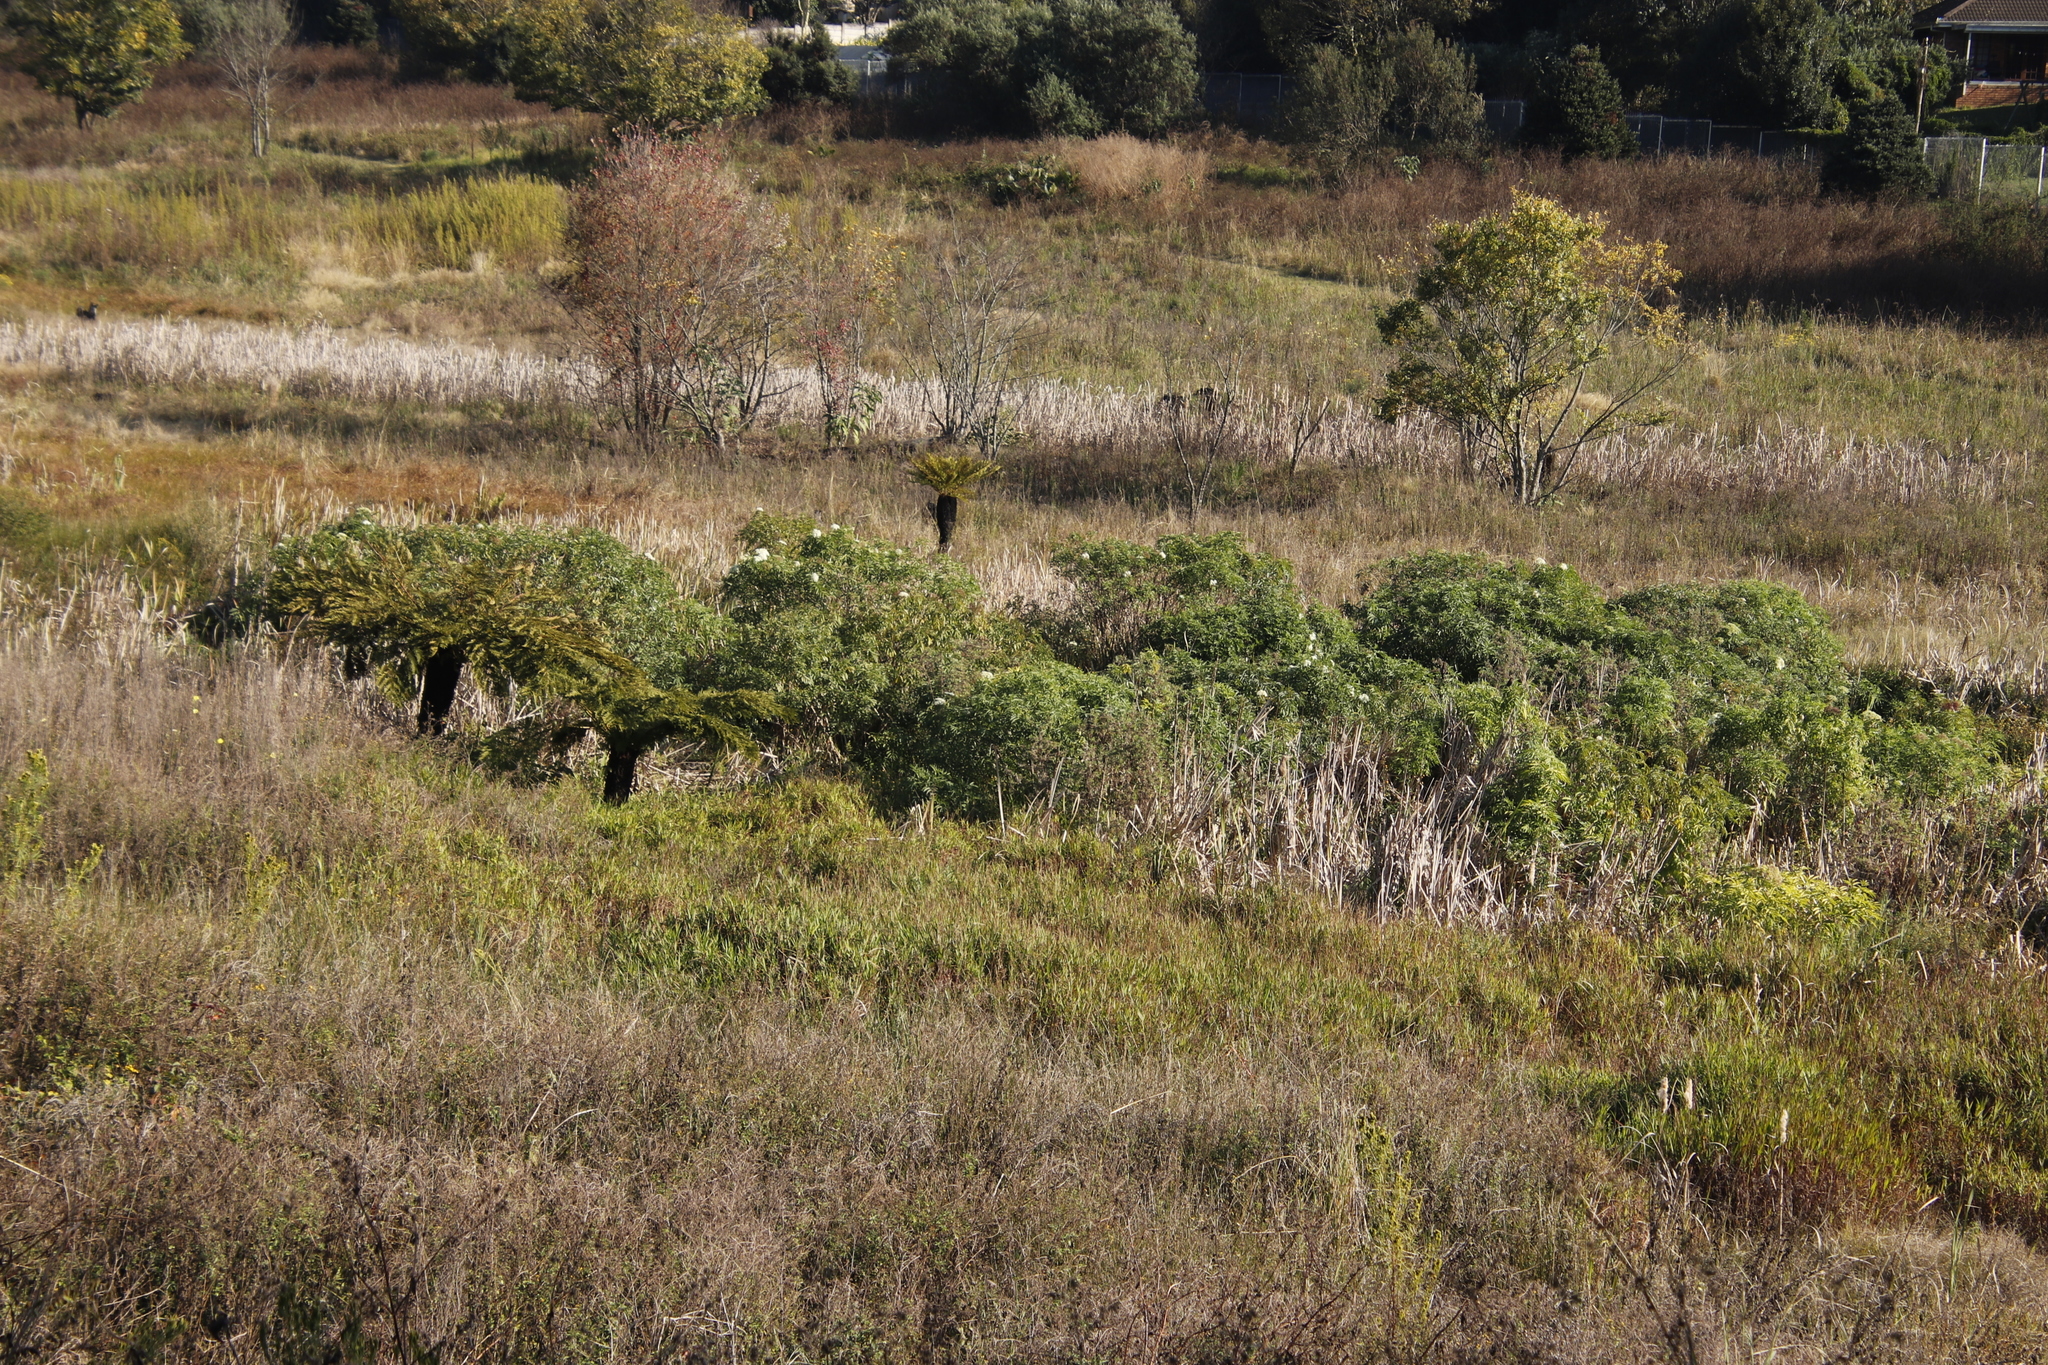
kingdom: Plantae
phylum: Tracheophyta
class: Polypodiopsida
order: Cyatheales
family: Cyatheaceae
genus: Alsophila
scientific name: Alsophila dregei
